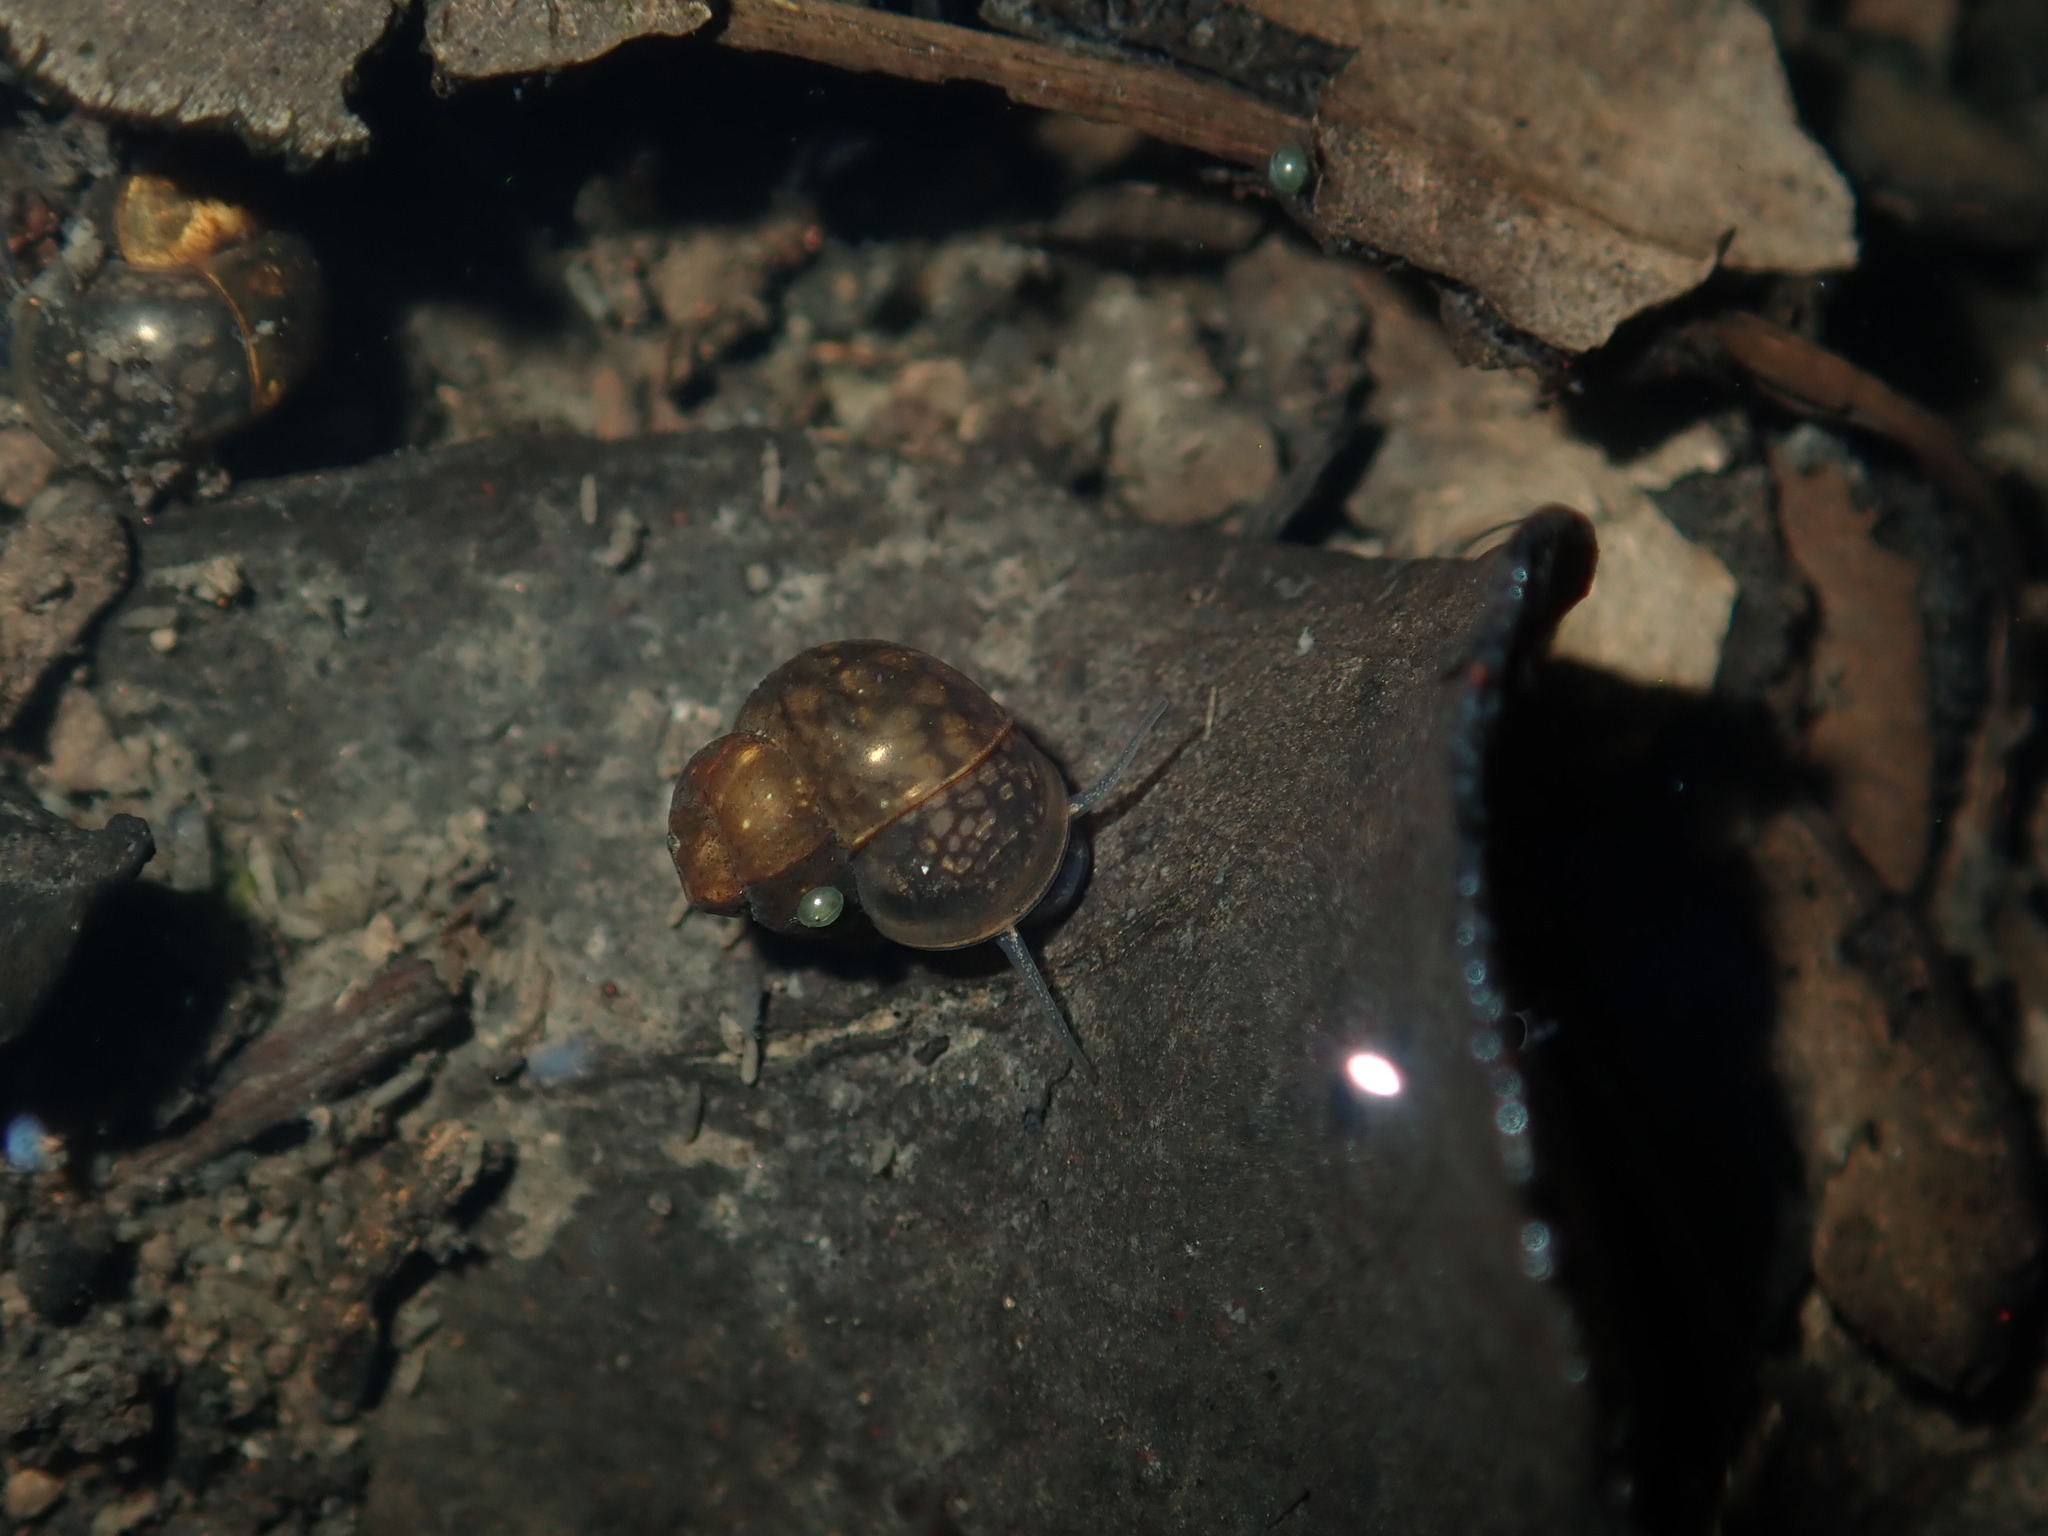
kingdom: Animalia
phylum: Mollusca
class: Gastropoda
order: Littorinimorpha
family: Bithyniidae
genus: Gabbia
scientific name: Gabbia vertiginosa
